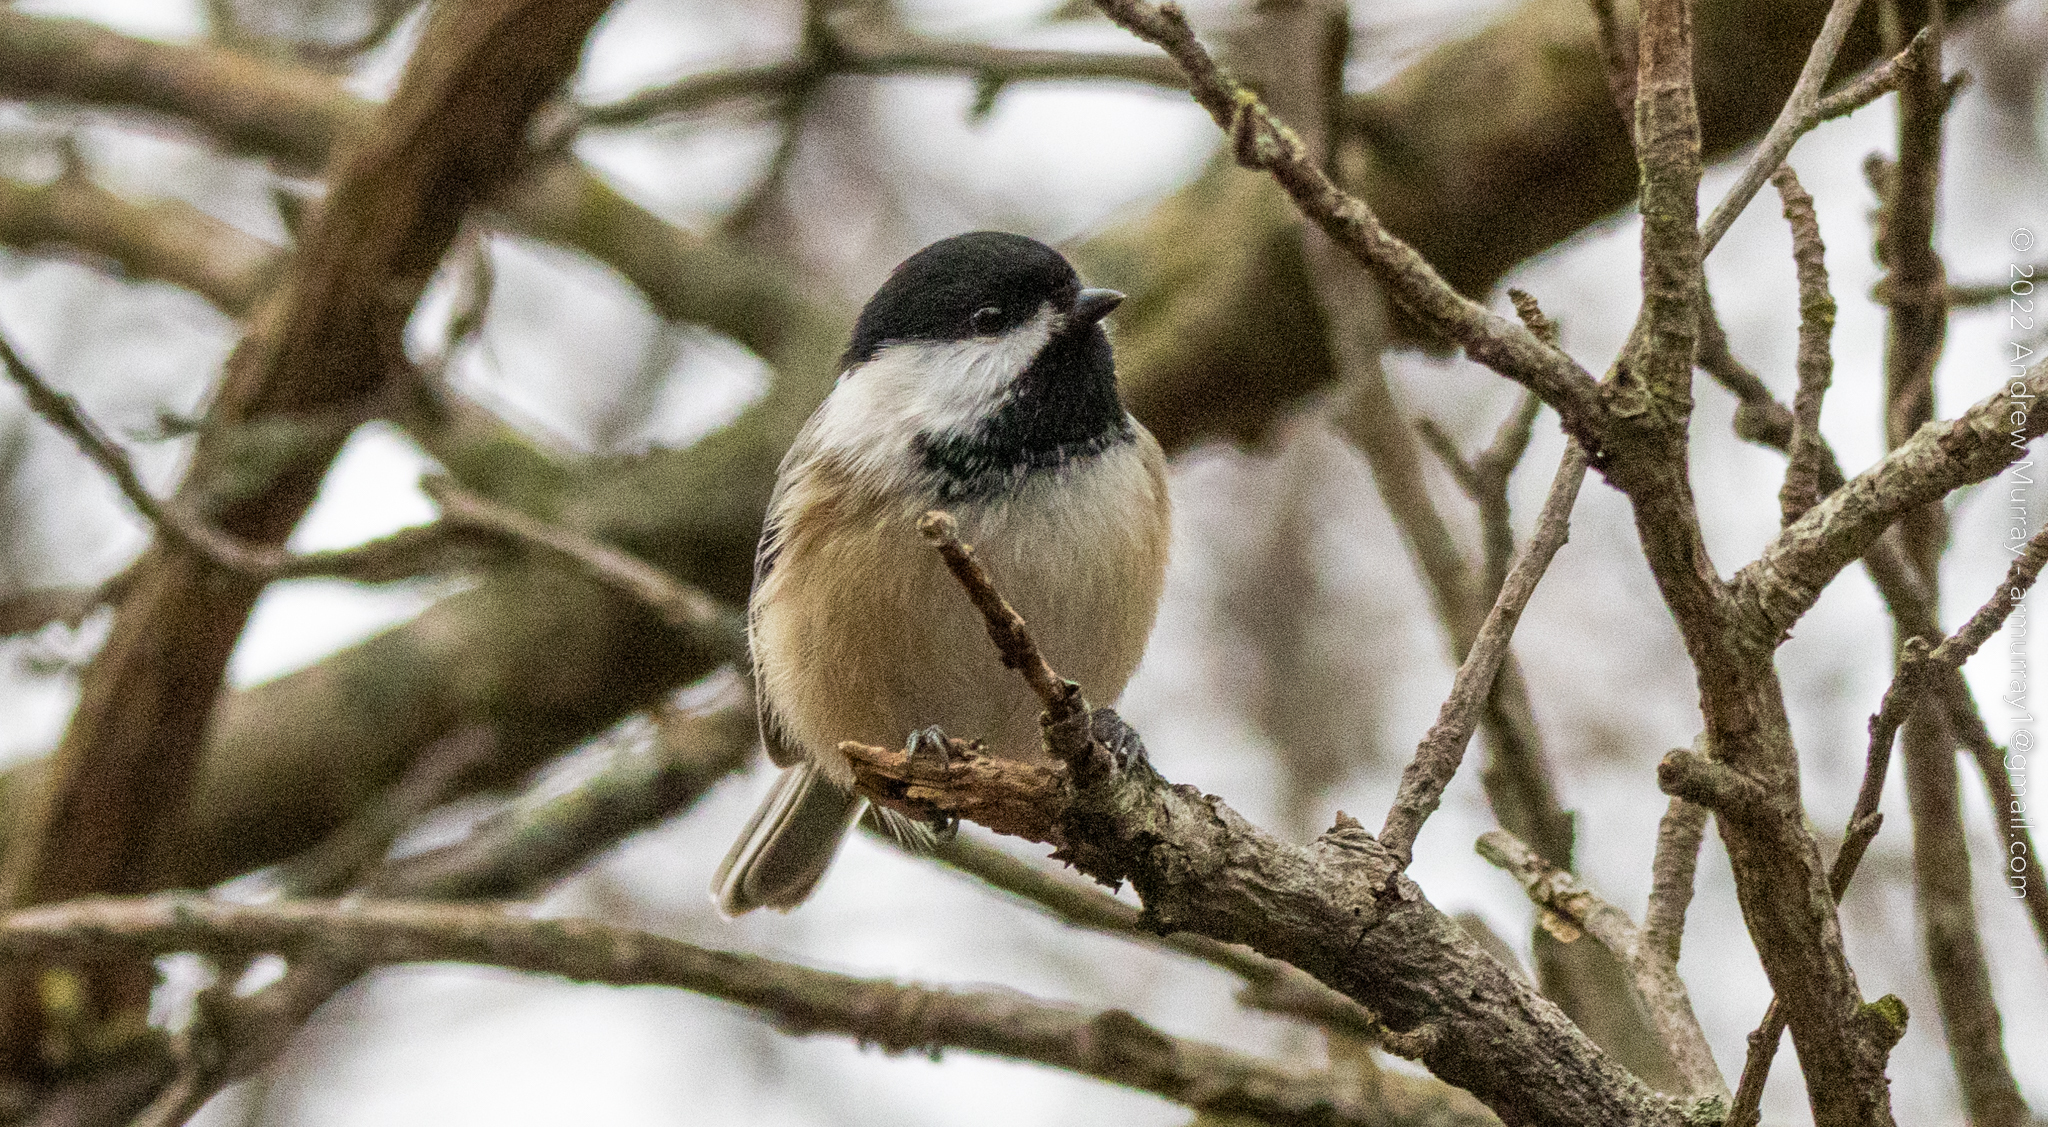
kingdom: Animalia
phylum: Chordata
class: Aves
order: Passeriformes
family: Paridae
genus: Poecile
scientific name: Poecile atricapillus
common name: Black-capped chickadee
